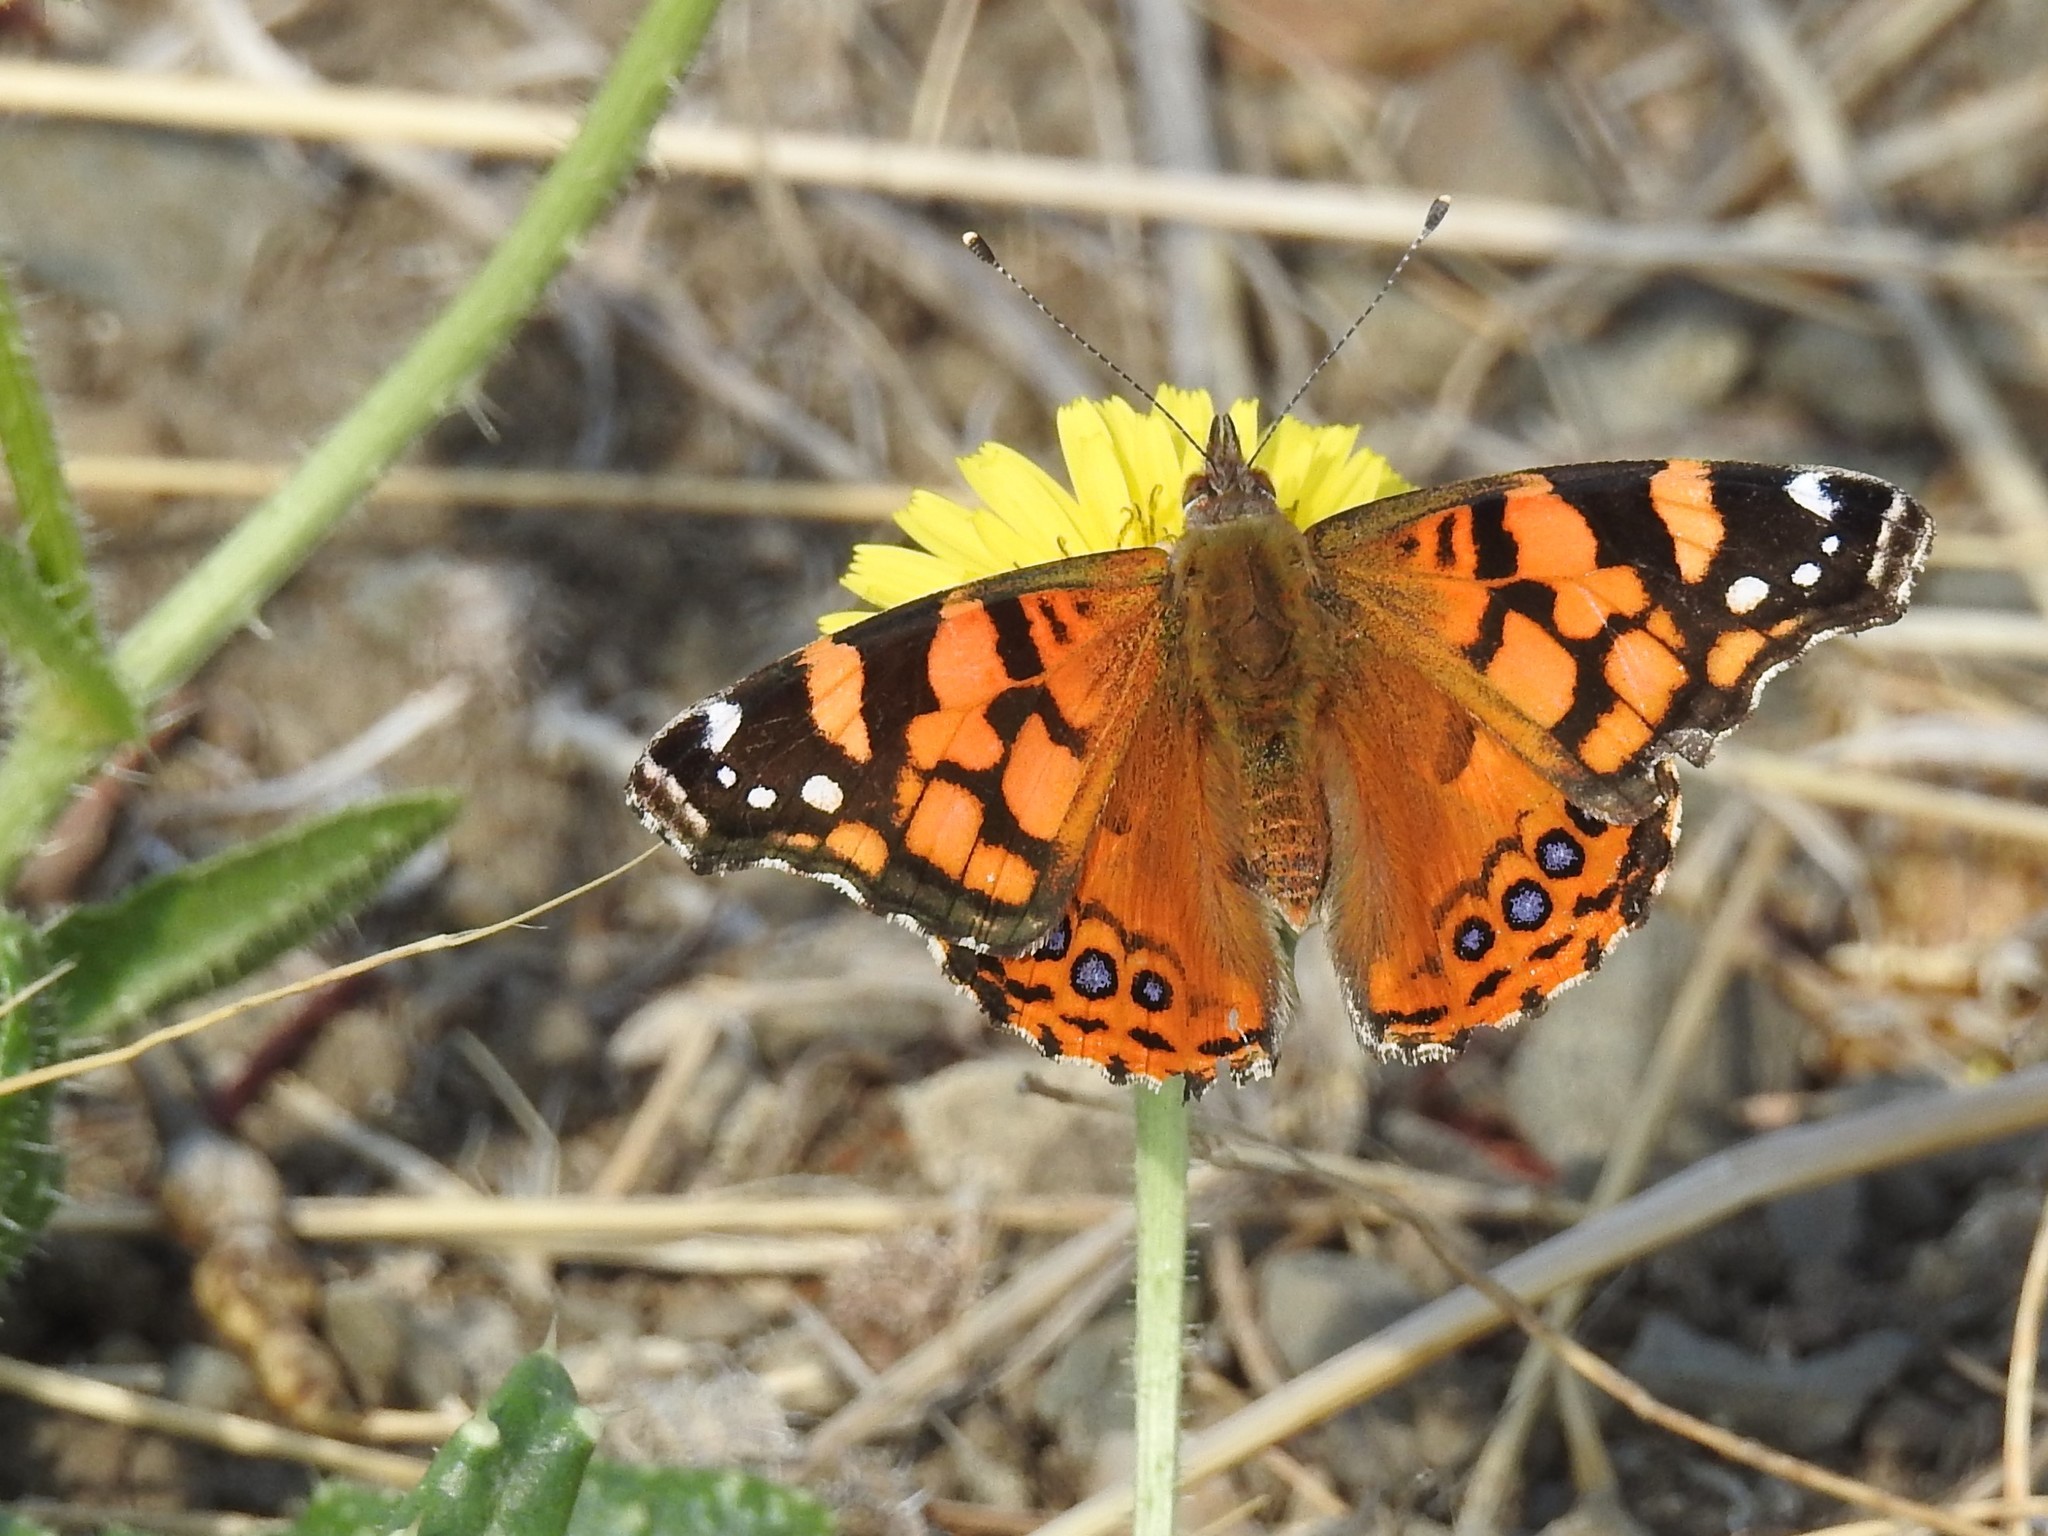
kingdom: Animalia
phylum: Arthropoda
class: Insecta
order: Lepidoptera
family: Nymphalidae
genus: Vanessa
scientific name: Vanessa annabella
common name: West coast lady
